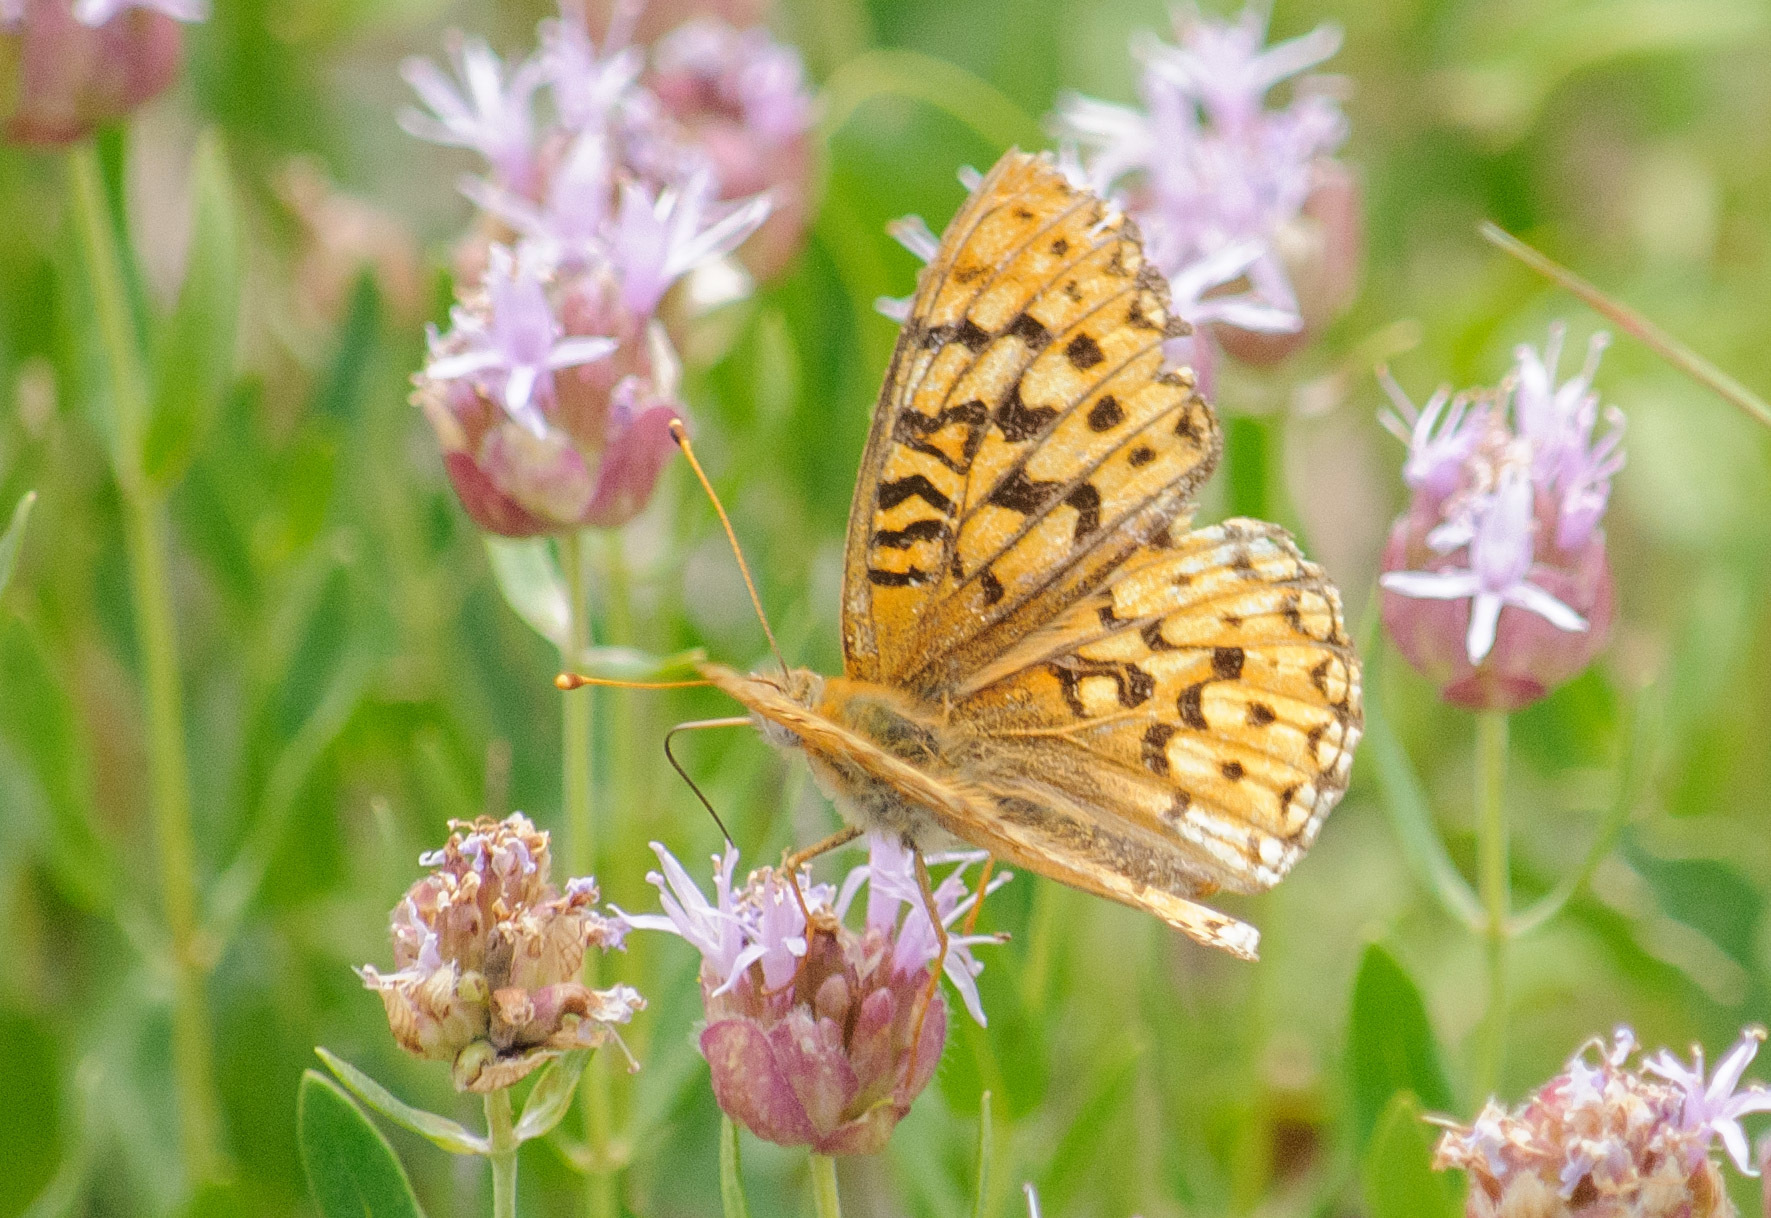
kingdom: Animalia
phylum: Arthropoda
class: Insecta
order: Lepidoptera
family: Nymphalidae
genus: Speyeria
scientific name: Speyeria callippe
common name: Callippe fritillary
